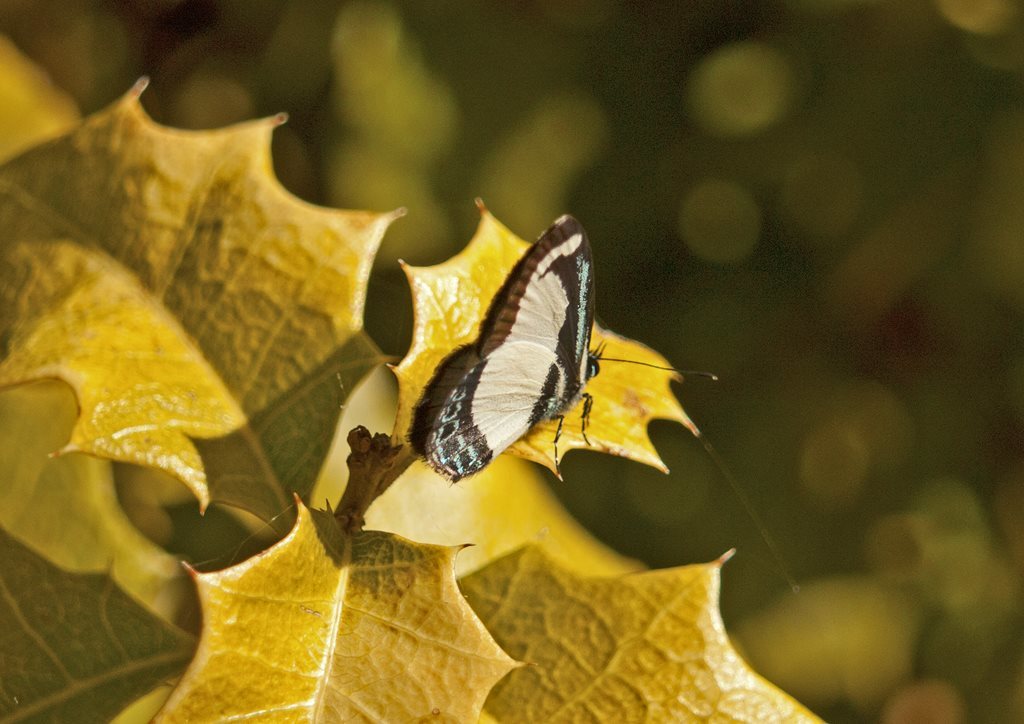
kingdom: Animalia
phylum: Arthropoda
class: Insecta
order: Lepidoptera
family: Lycaenidae
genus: Psychonotis
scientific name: Psychonotis caelius
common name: Small green banded blue
